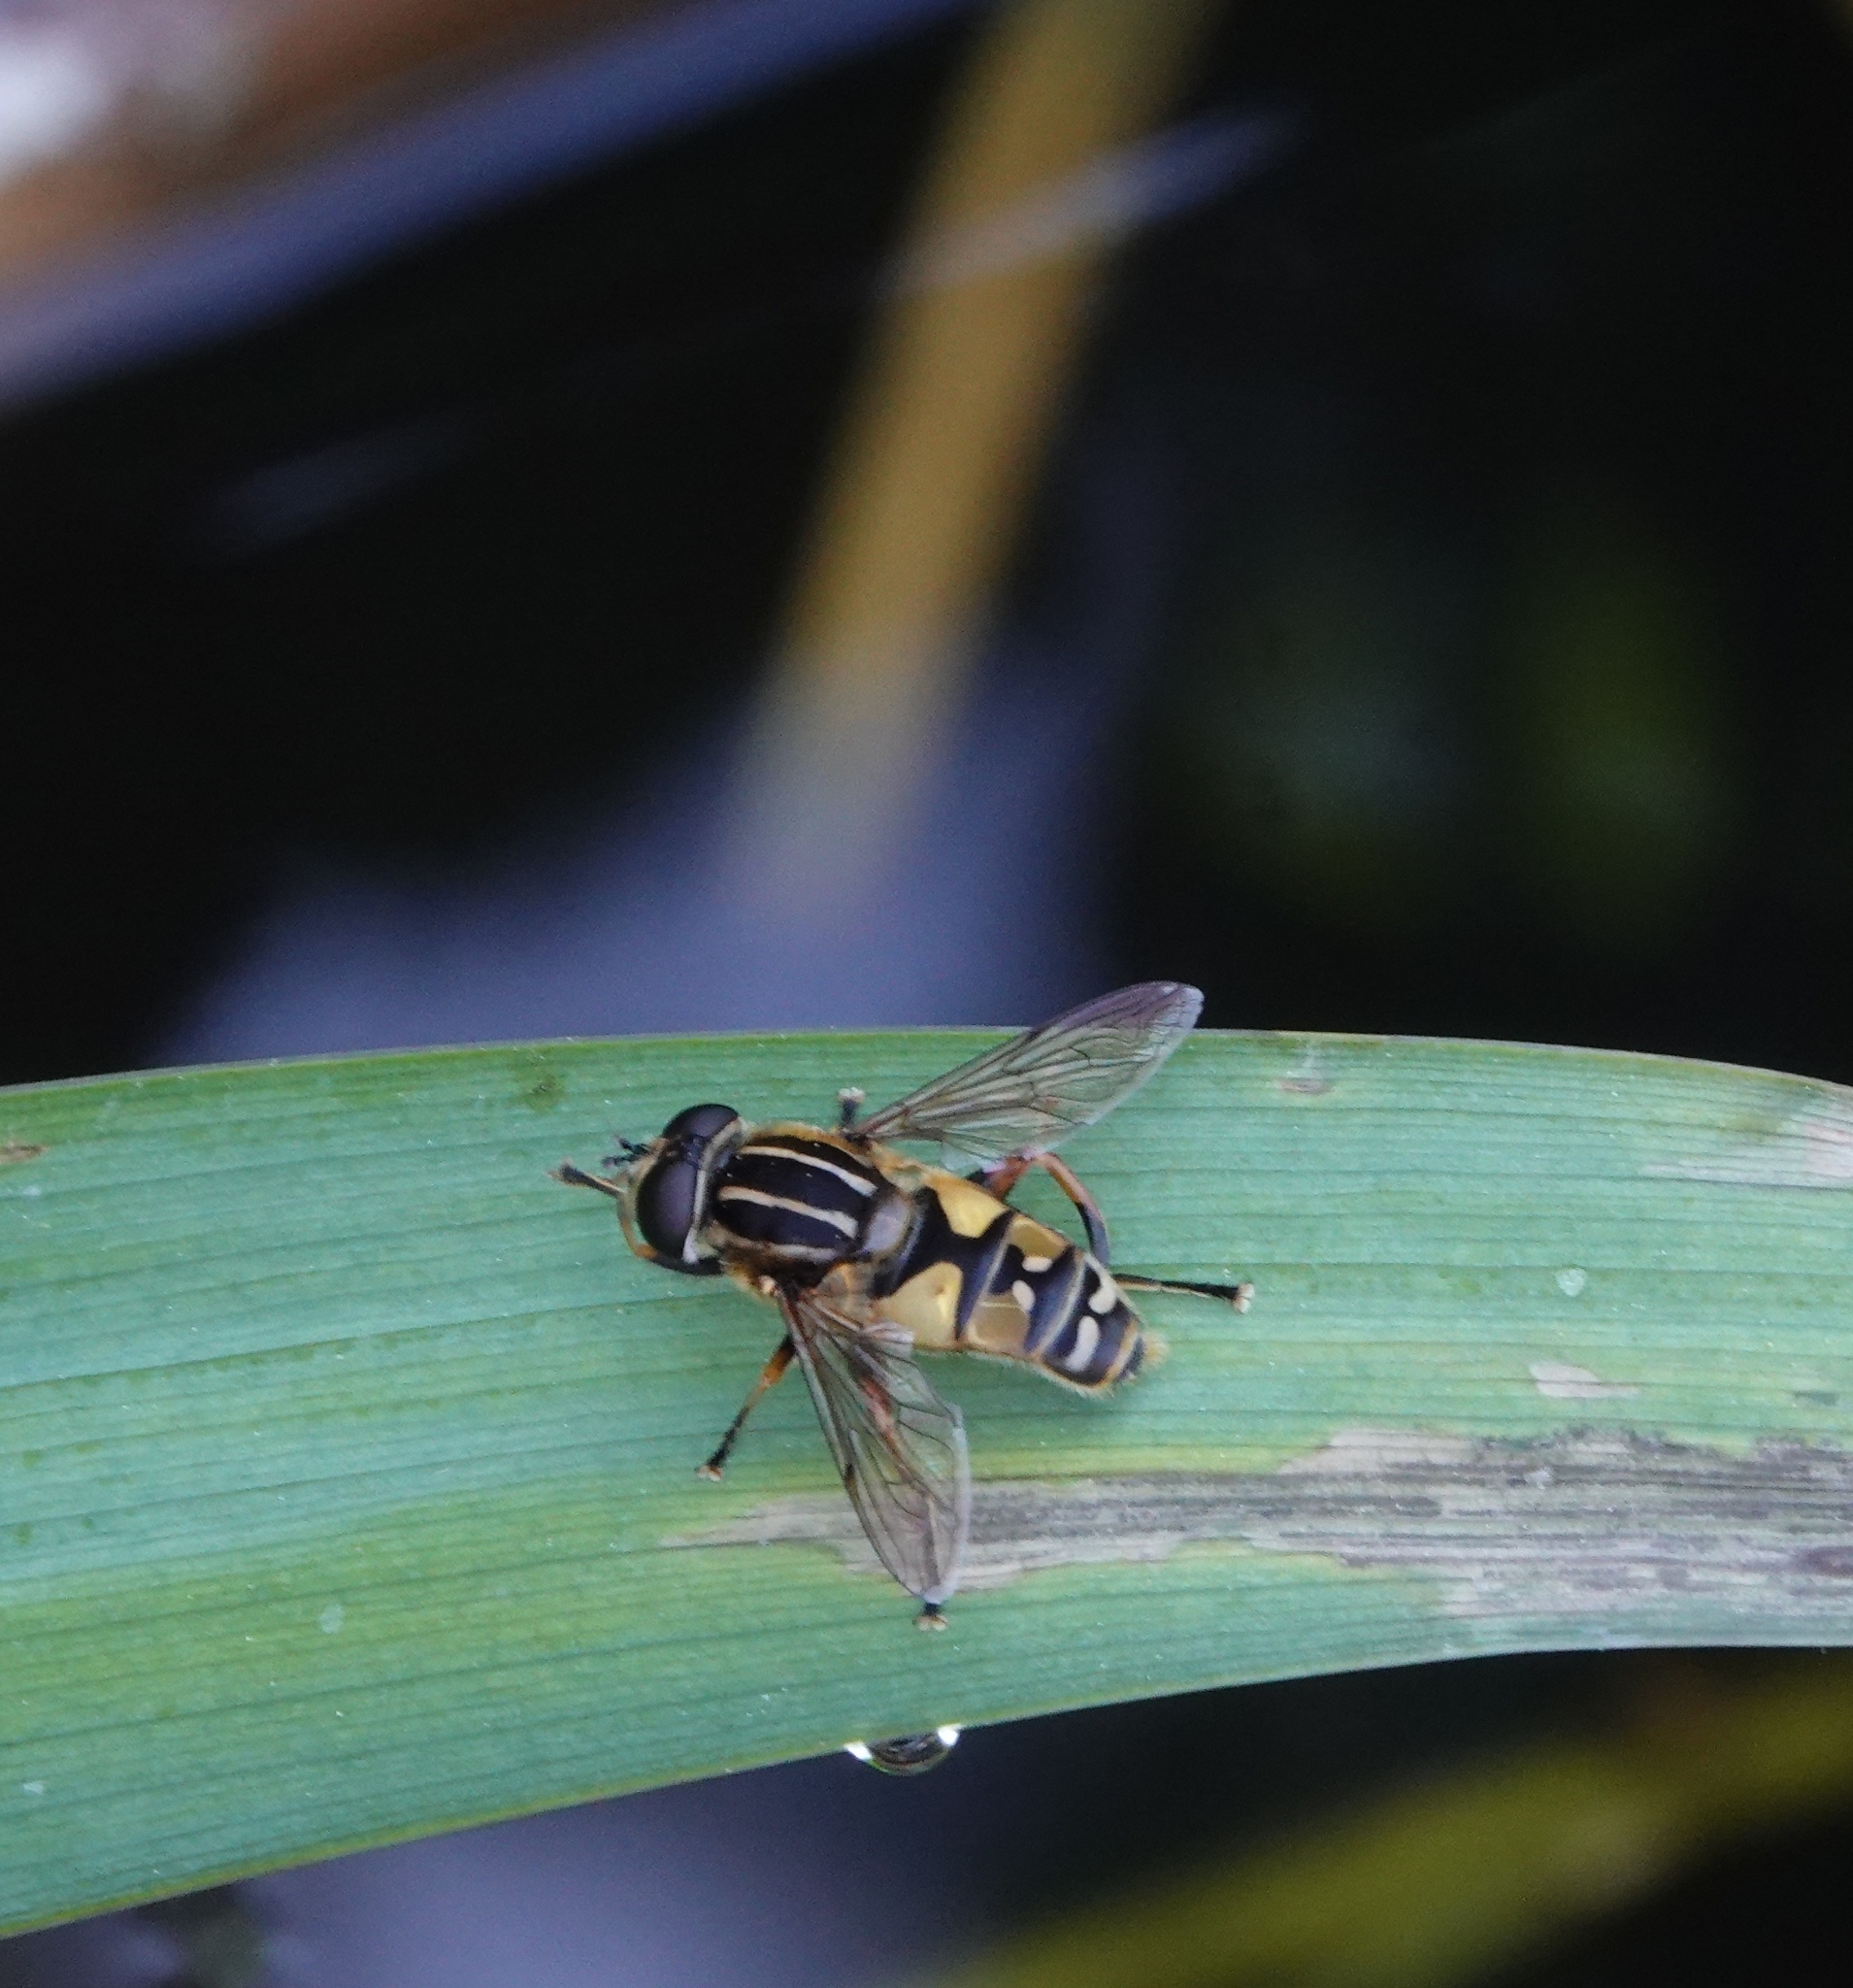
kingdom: Animalia
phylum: Arthropoda
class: Insecta
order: Diptera
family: Syrphidae
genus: Helophilus
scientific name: Helophilus pendulus
